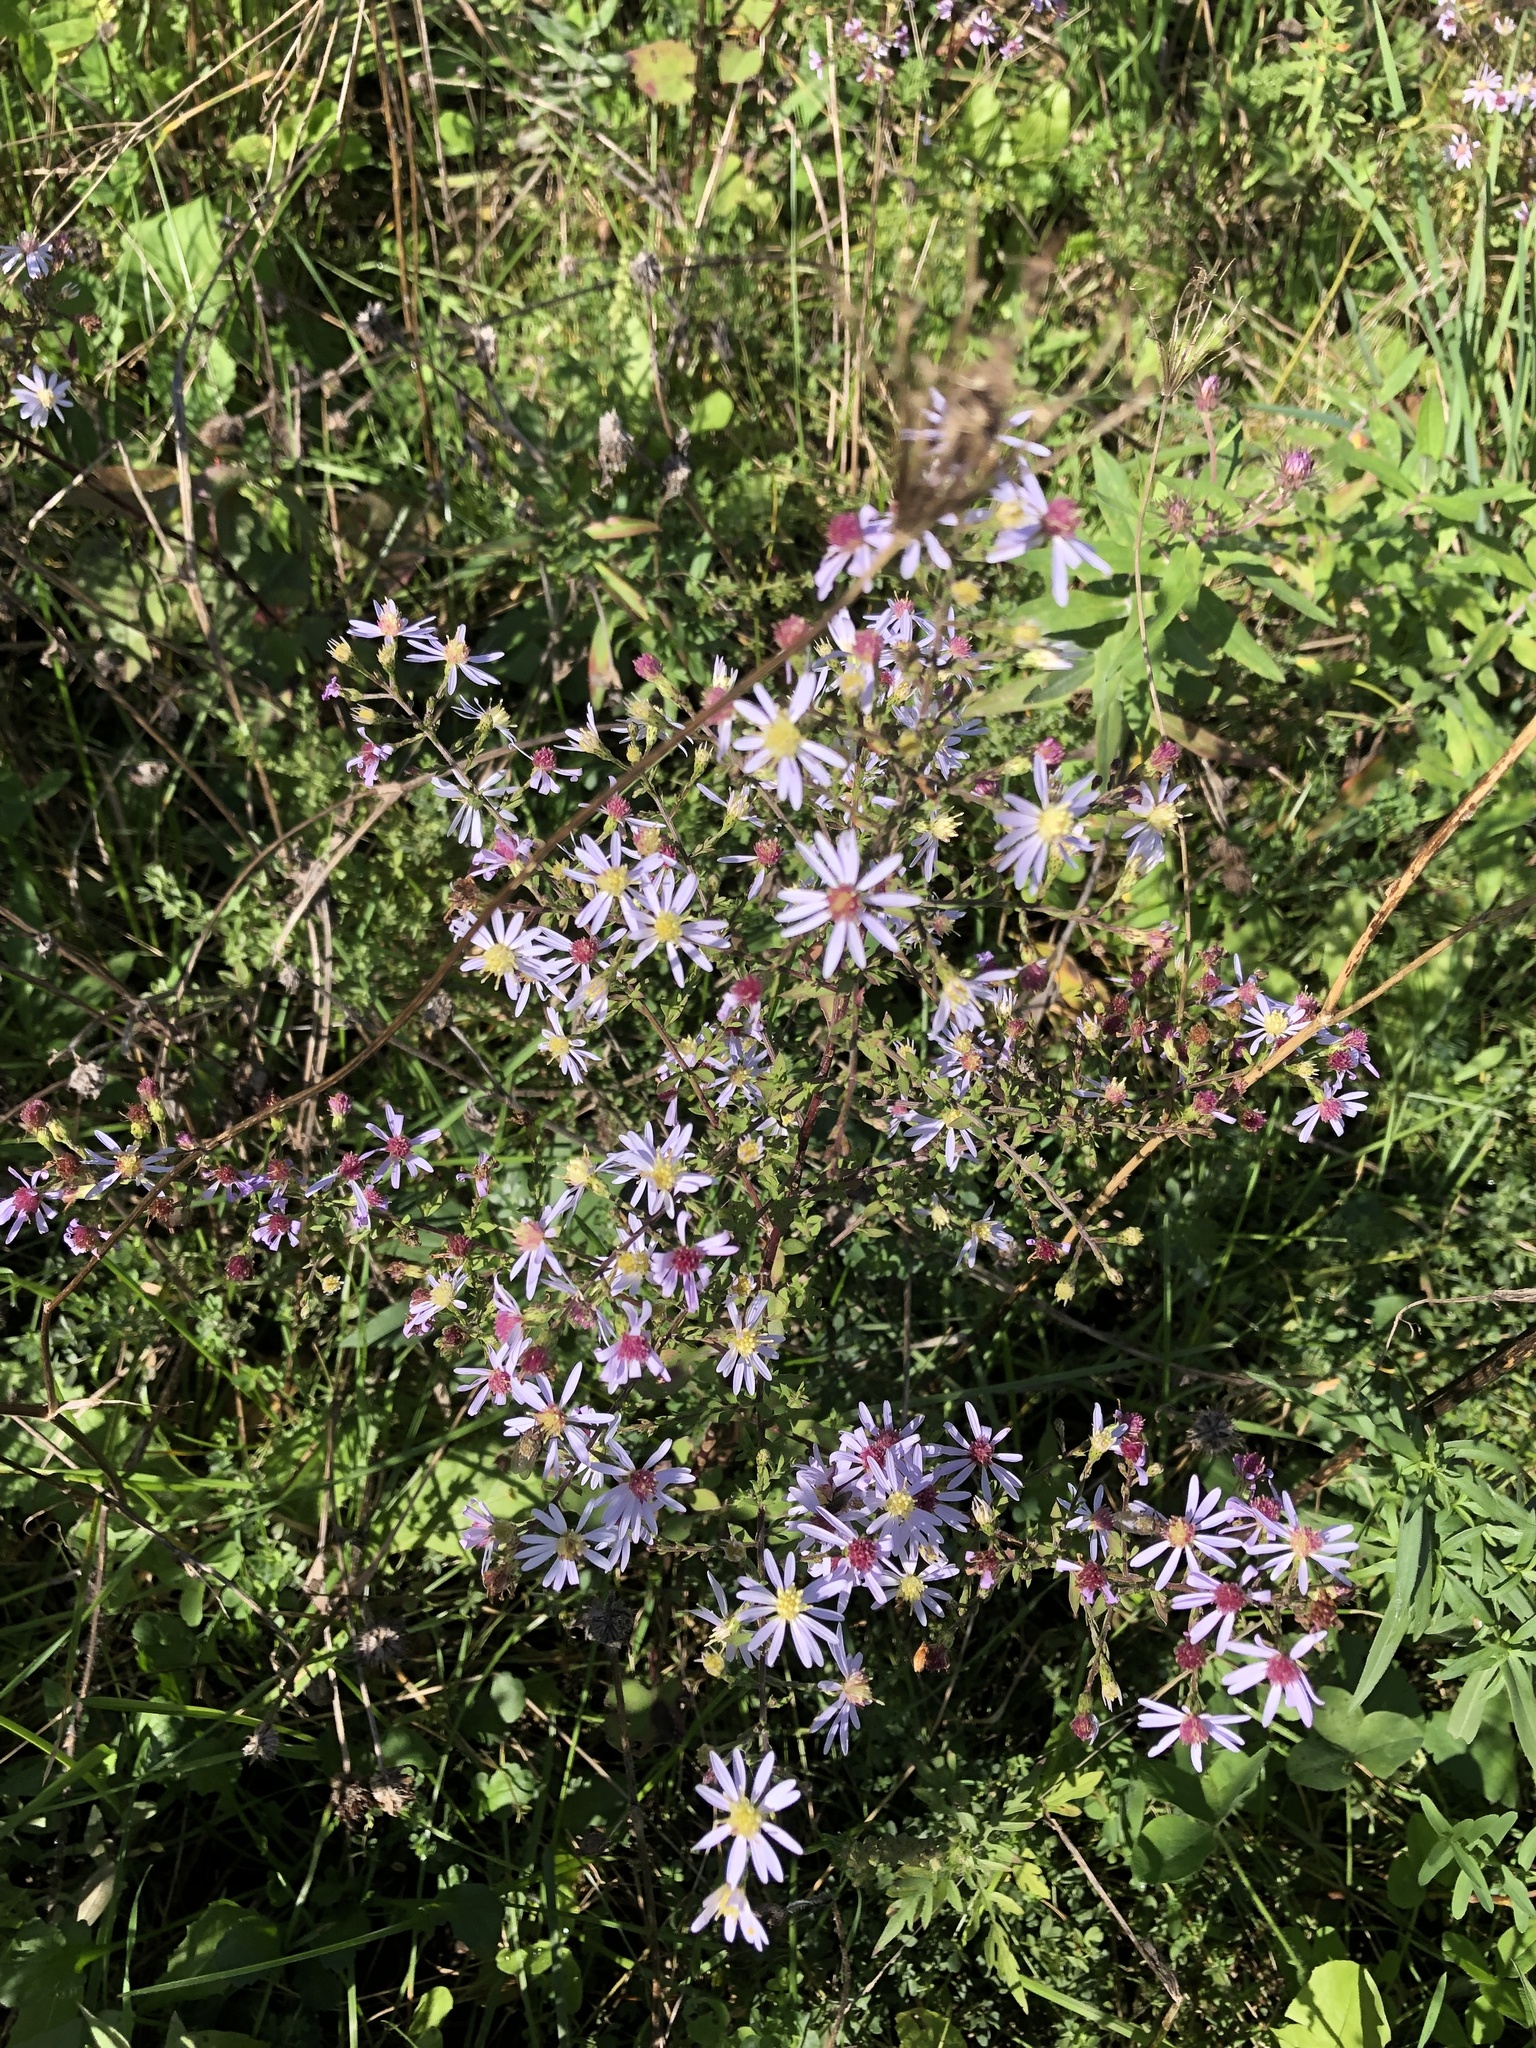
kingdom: Plantae
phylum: Tracheophyta
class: Magnoliopsida
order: Asterales
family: Asteraceae
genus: Symphyotrichum
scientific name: Symphyotrichum cordifolium
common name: Beeweed
